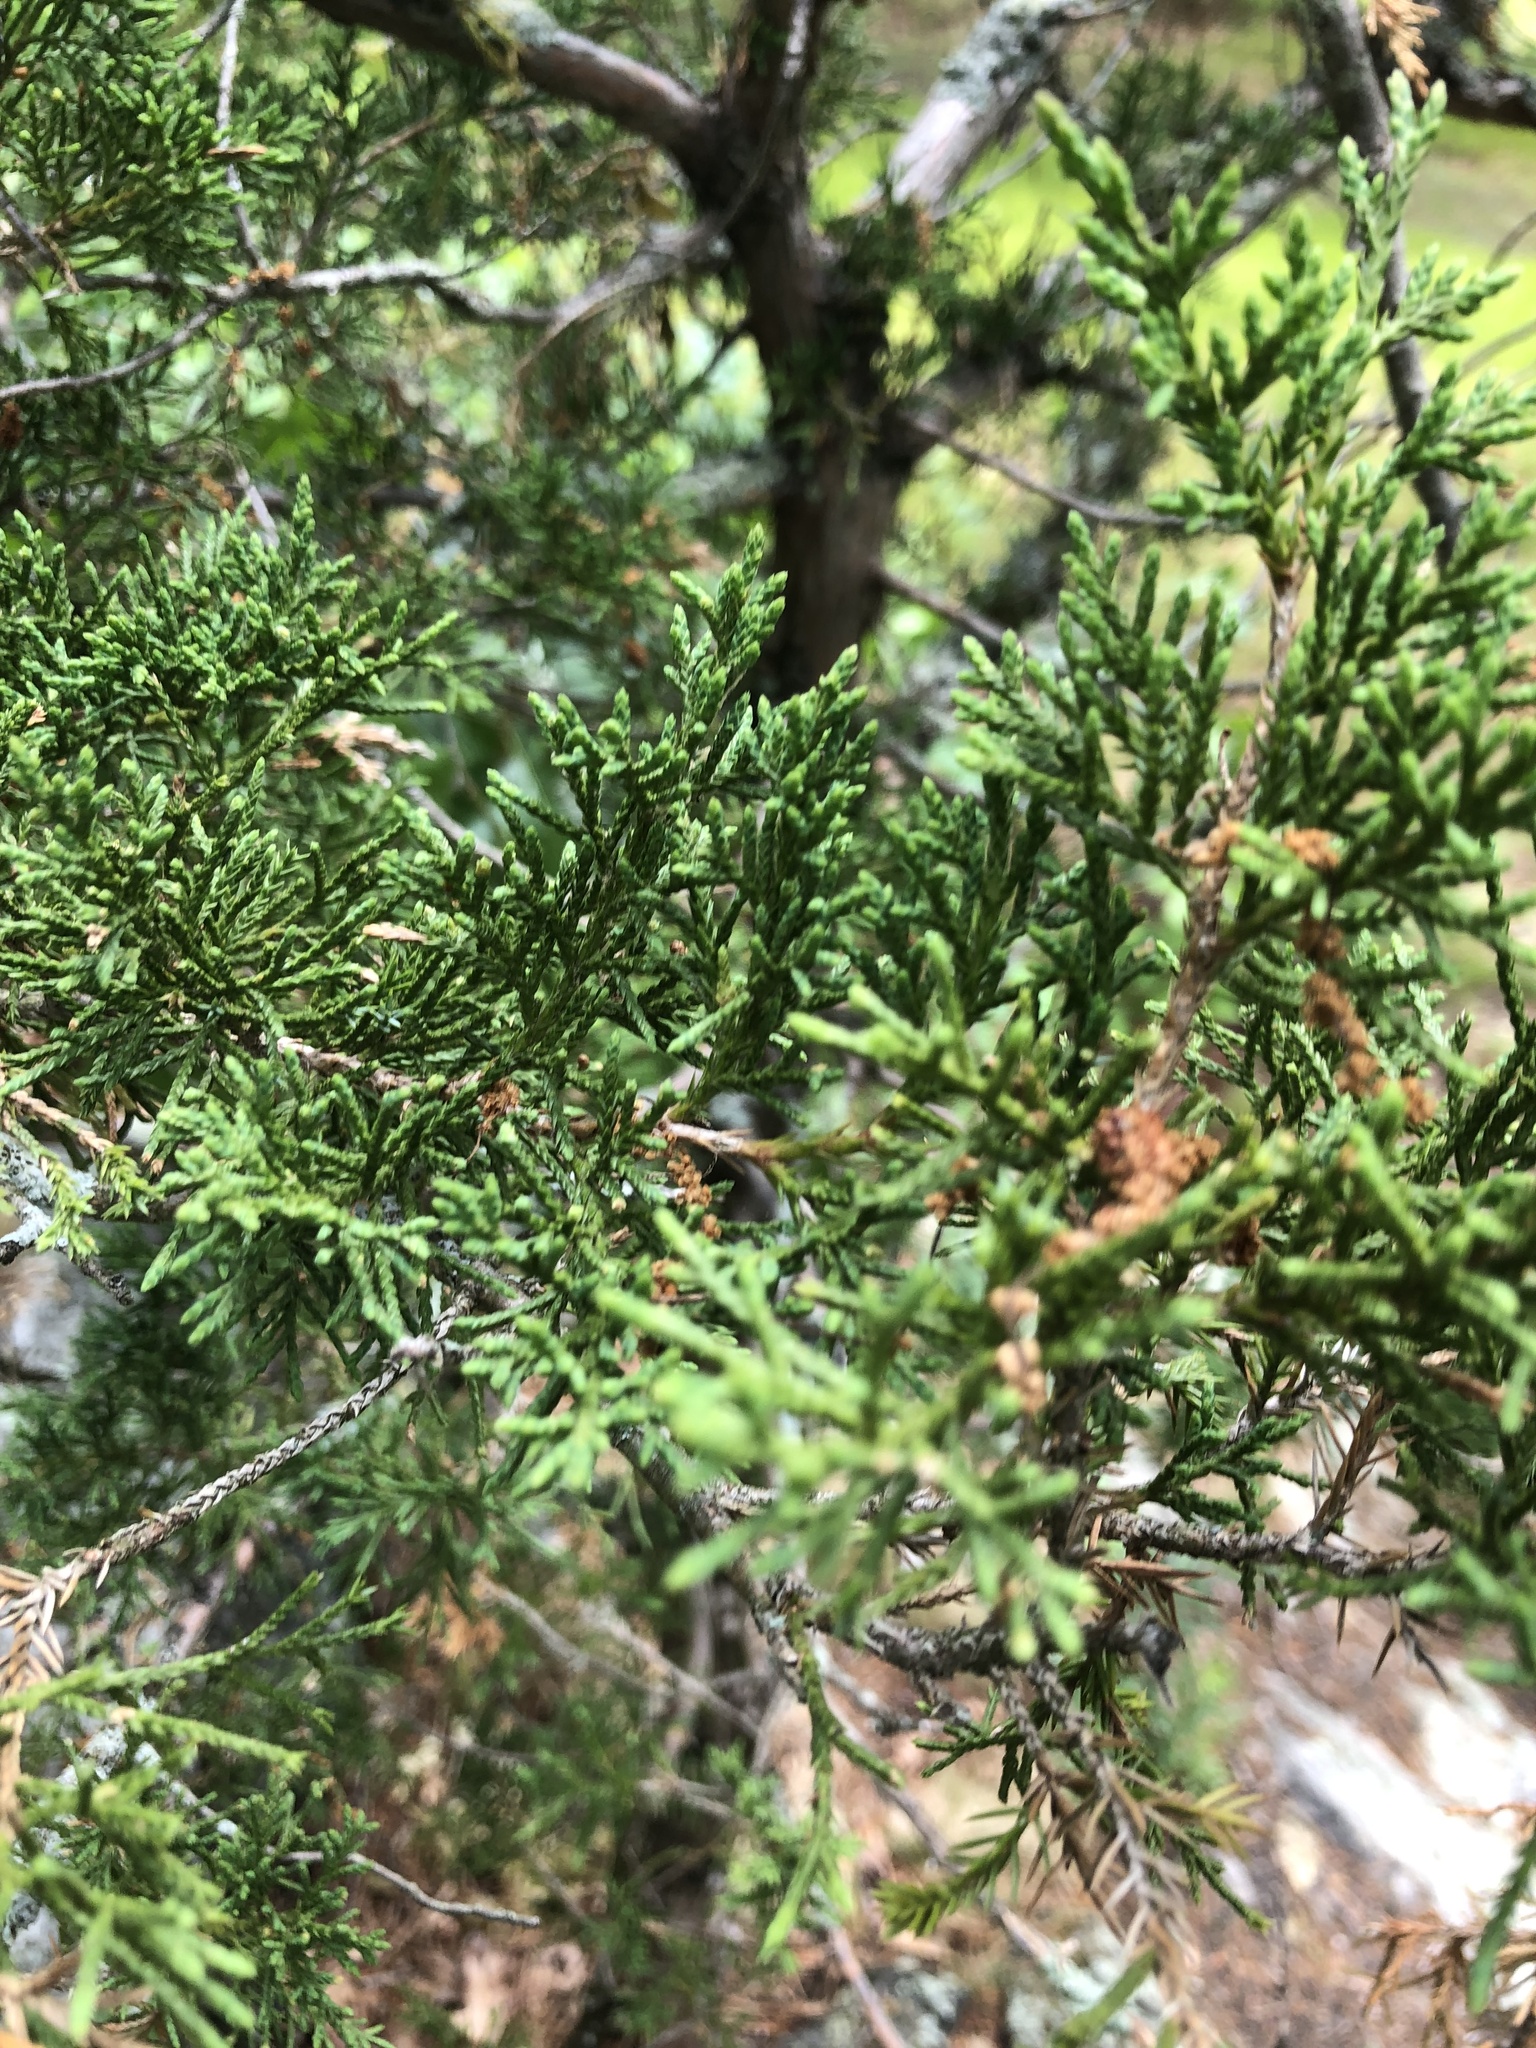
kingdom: Plantae
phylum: Tracheophyta
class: Pinopsida
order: Pinales
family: Cupressaceae
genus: Juniperus
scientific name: Juniperus virginiana
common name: Red juniper
